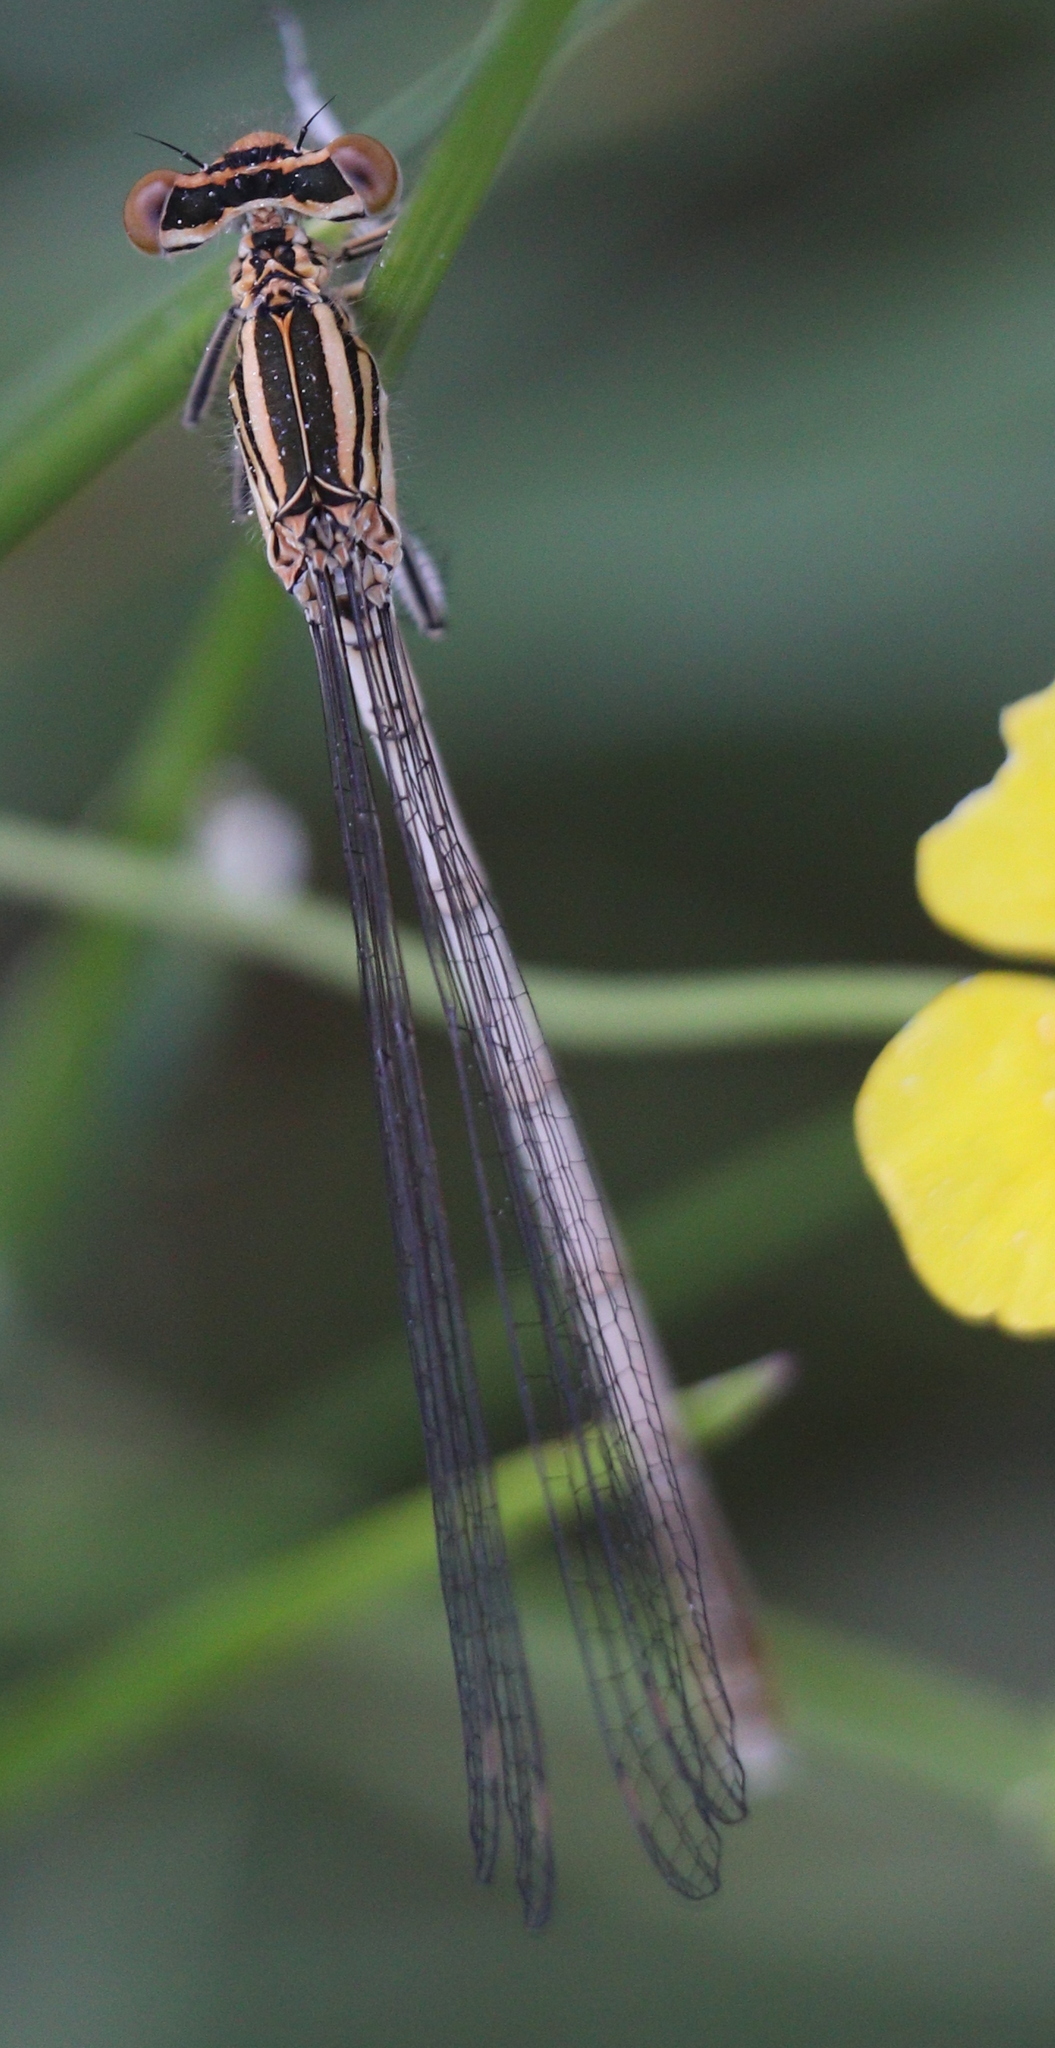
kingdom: Animalia
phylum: Arthropoda
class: Insecta
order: Odonata
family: Platycnemididae
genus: Platycnemis
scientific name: Platycnemis pennipes
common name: White-legged damselfly
